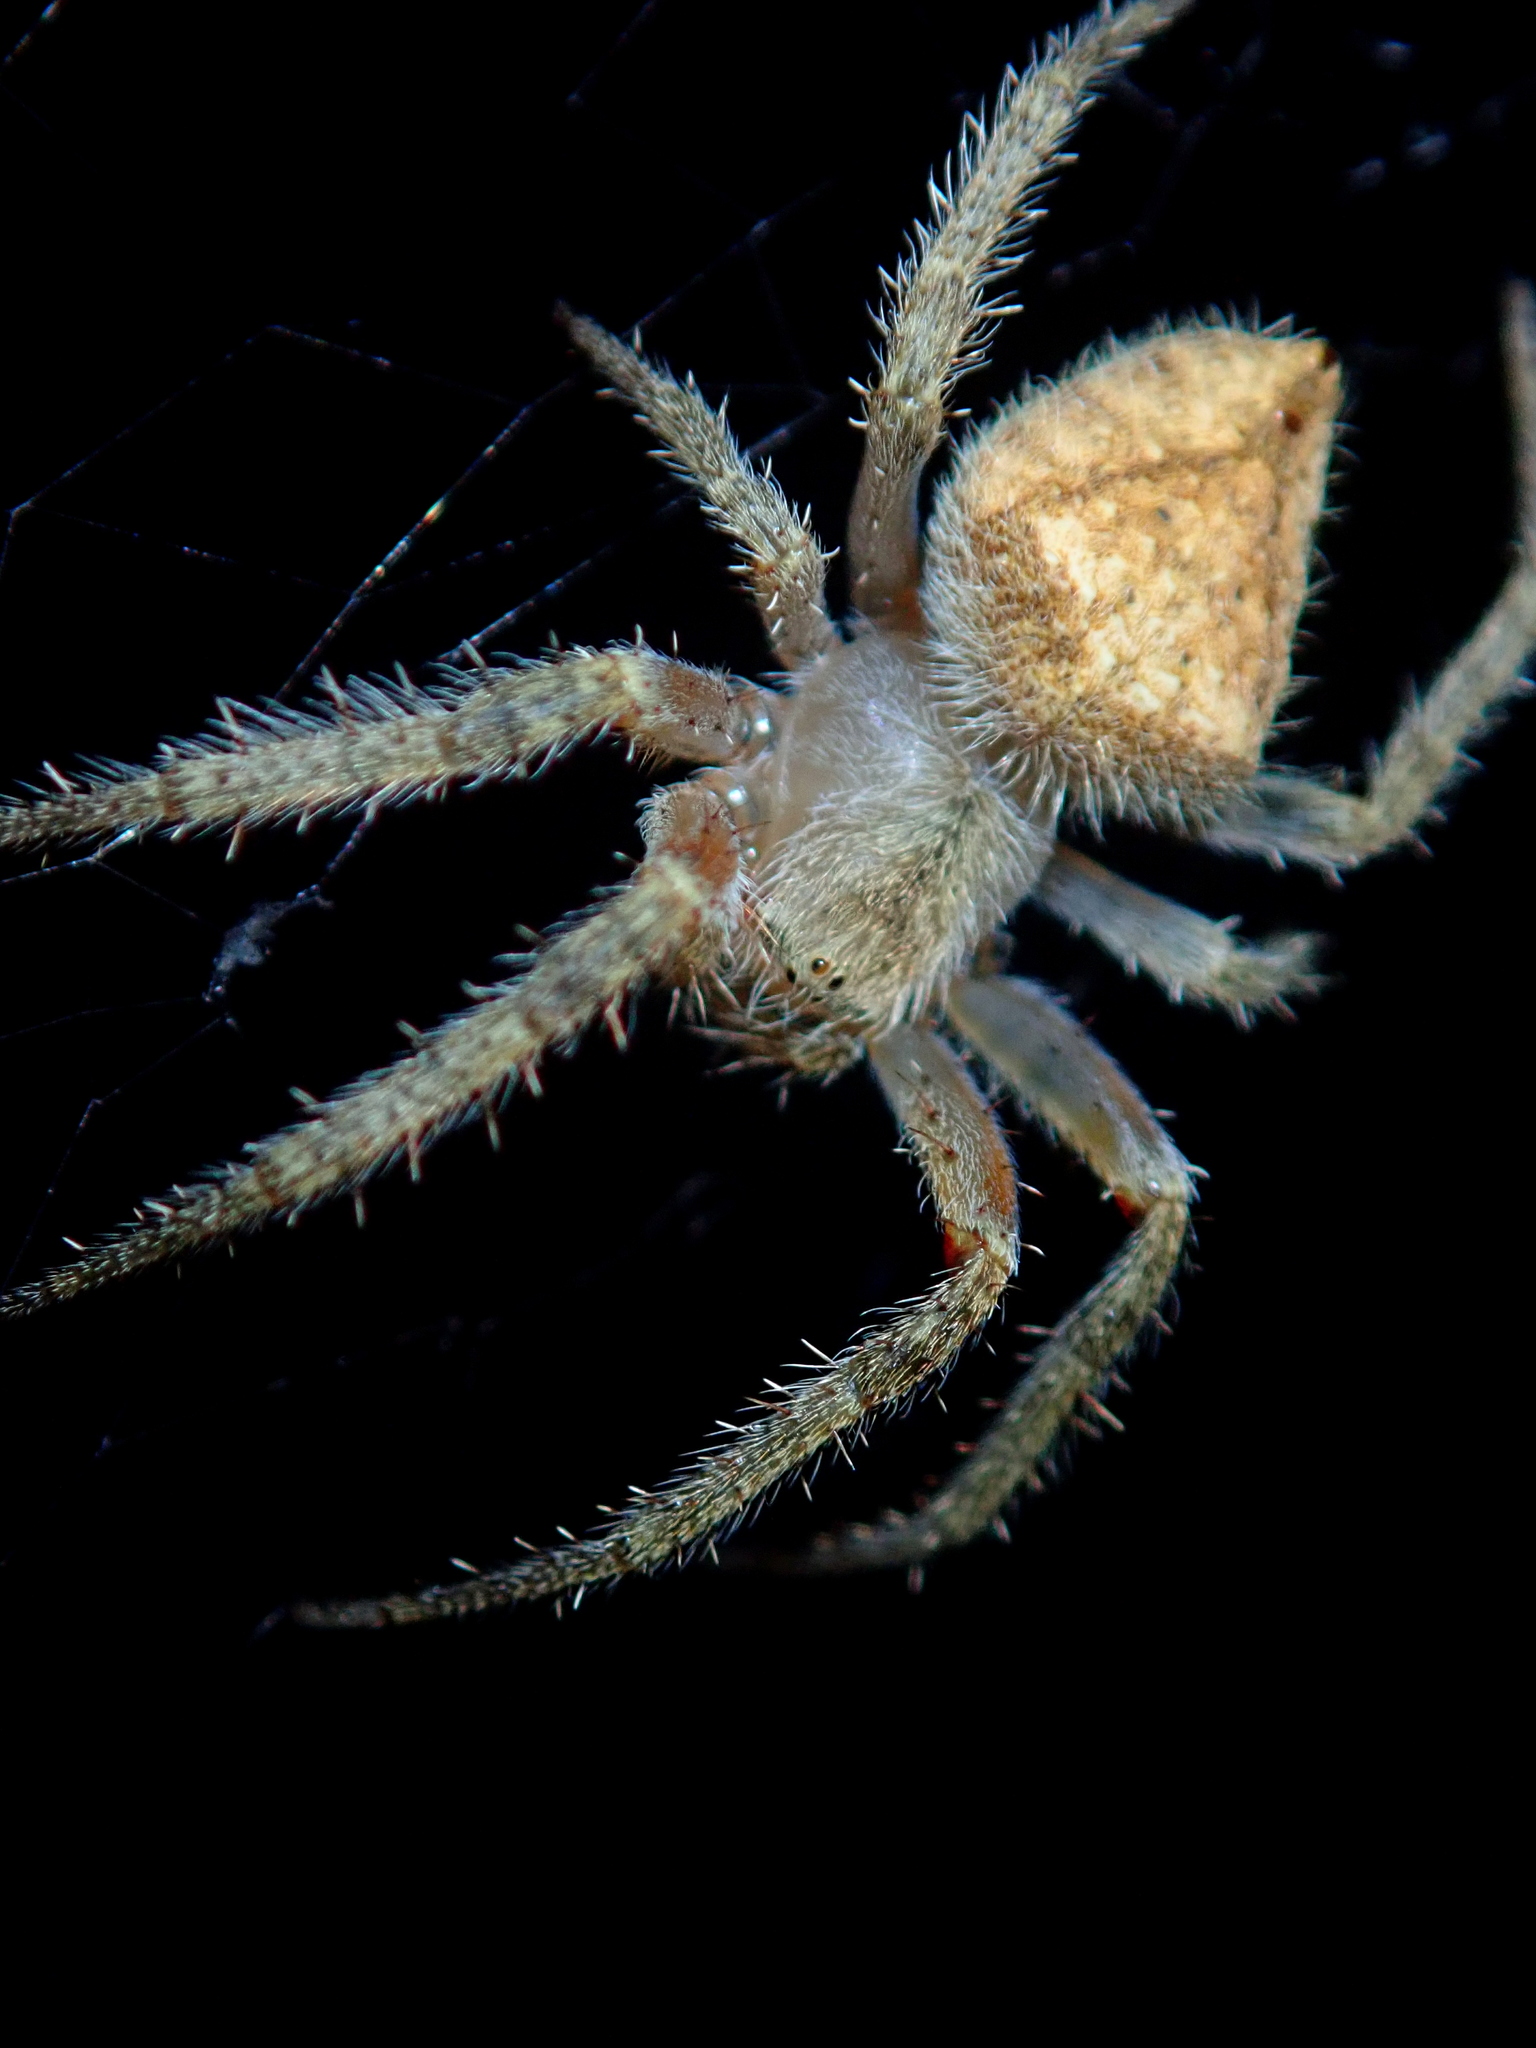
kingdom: Animalia
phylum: Arthropoda
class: Arachnida
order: Araneae
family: Araneidae
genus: Eriophora
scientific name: Eriophora edax
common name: Orb weavers
